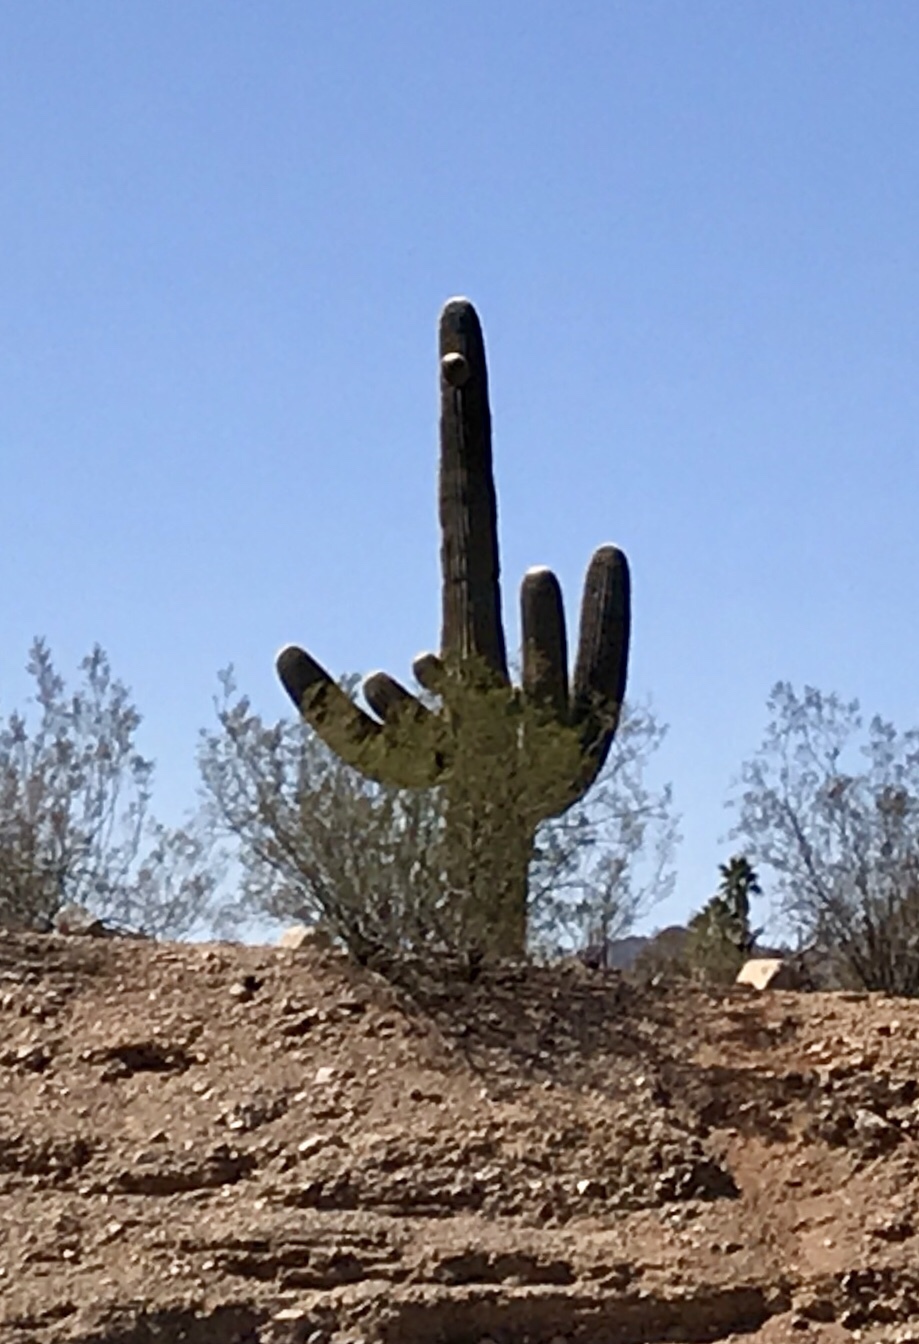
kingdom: Plantae
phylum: Tracheophyta
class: Magnoliopsida
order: Caryophyllales
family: Cactaceae
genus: Carnegiea
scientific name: Carnegiea gigantea
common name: Saguaro
